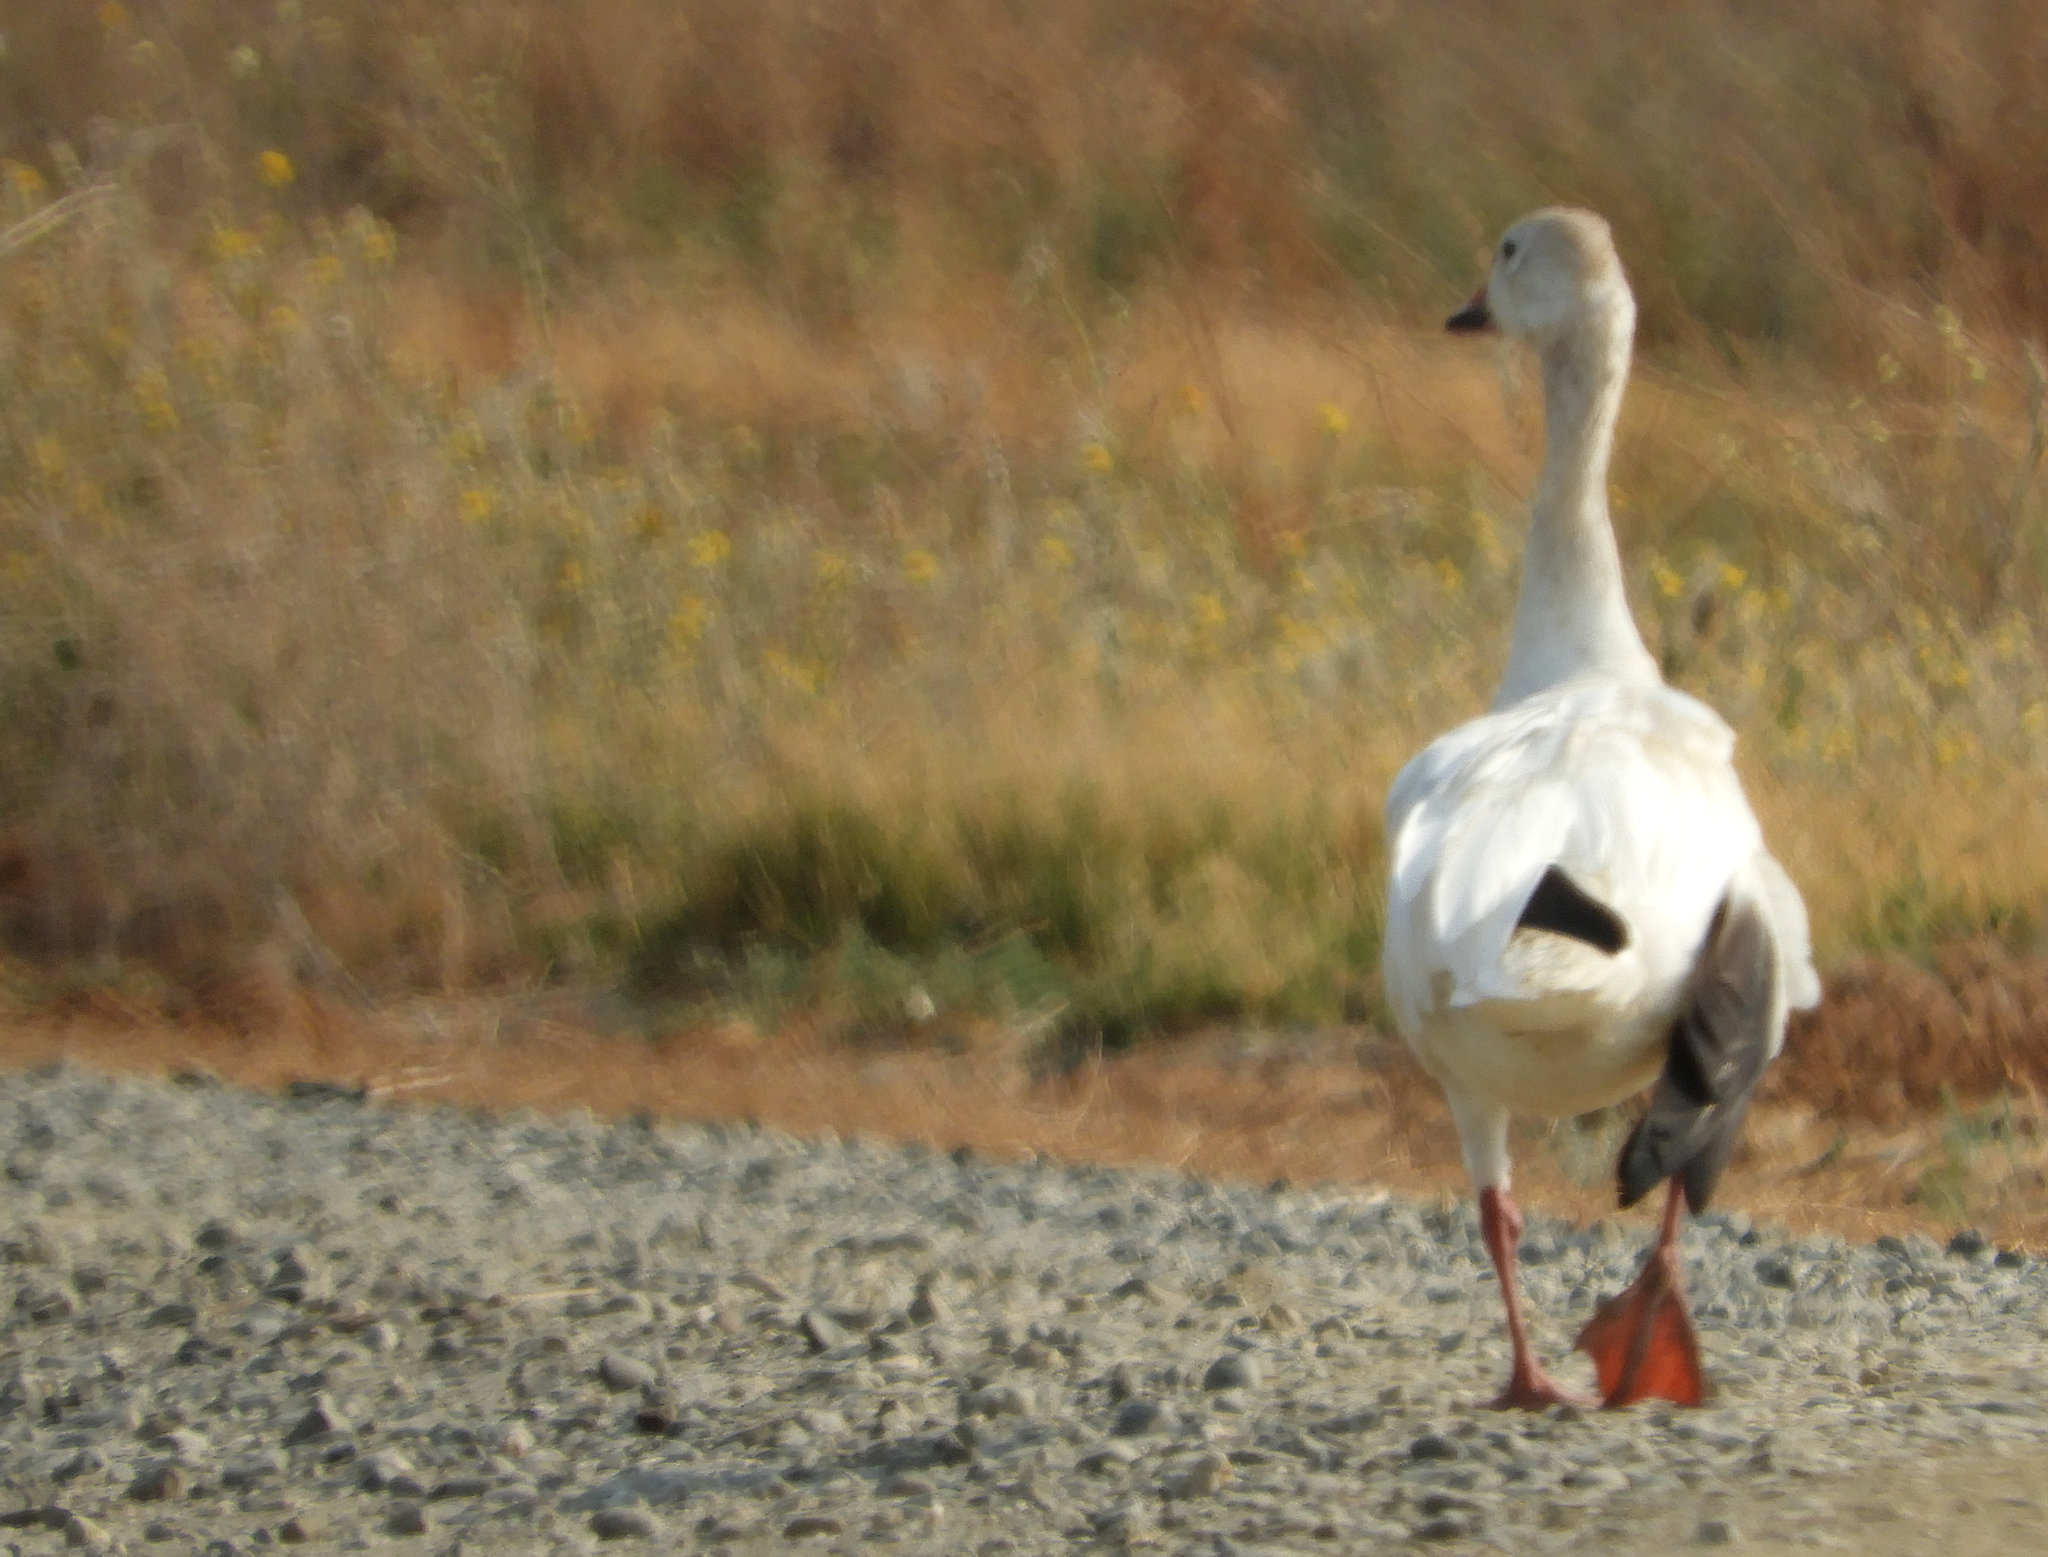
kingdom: Animalia
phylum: Chordata
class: Aves
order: Anseriformes
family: Anatidae
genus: Anser
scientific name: Anser caerulescens
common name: Snow goose
